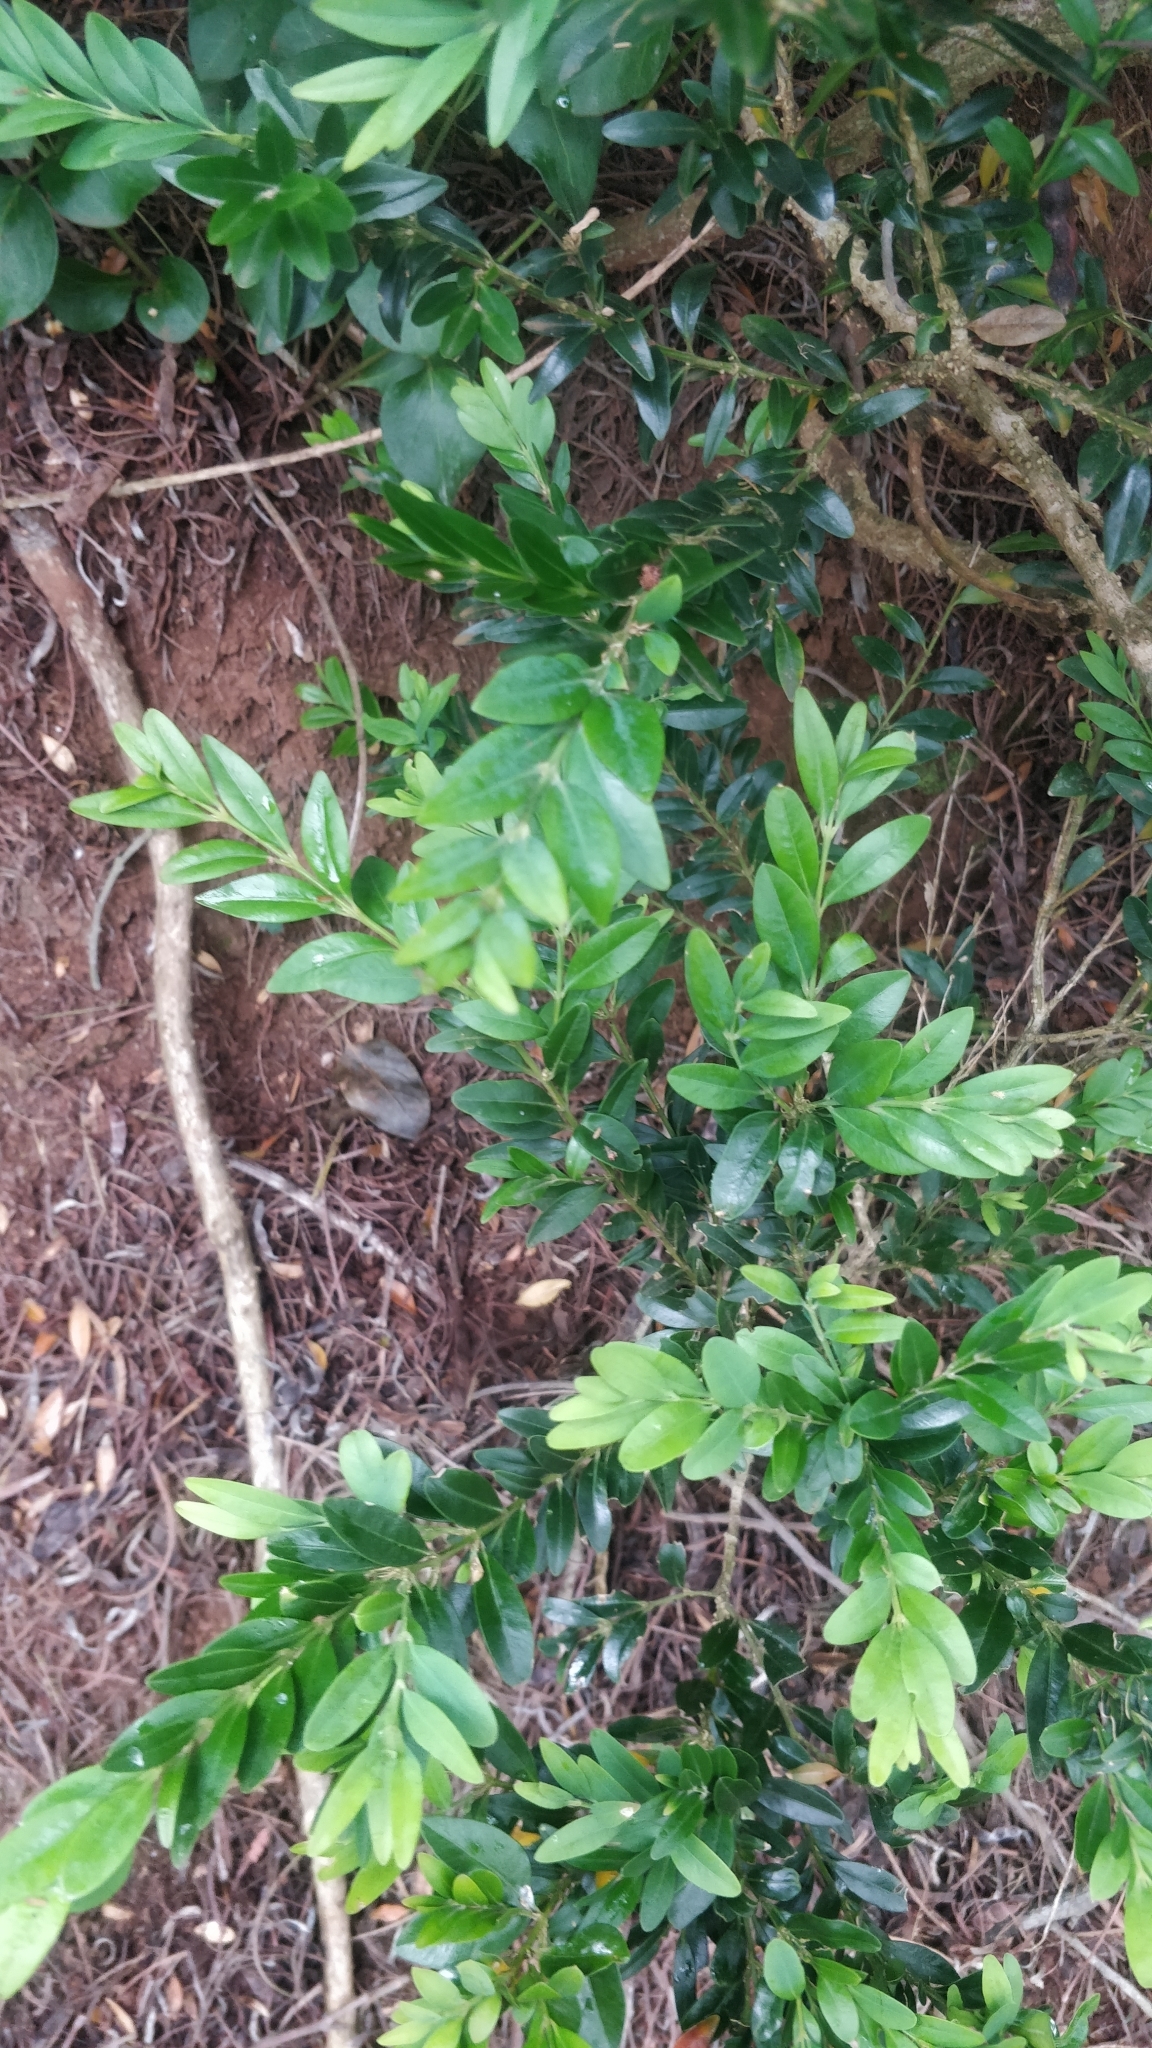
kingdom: Plantae
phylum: Tracheophyta
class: Magnoliopsida
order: Buxales
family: Buxaceae
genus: Buxus
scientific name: Buxus sempervirens
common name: Box
